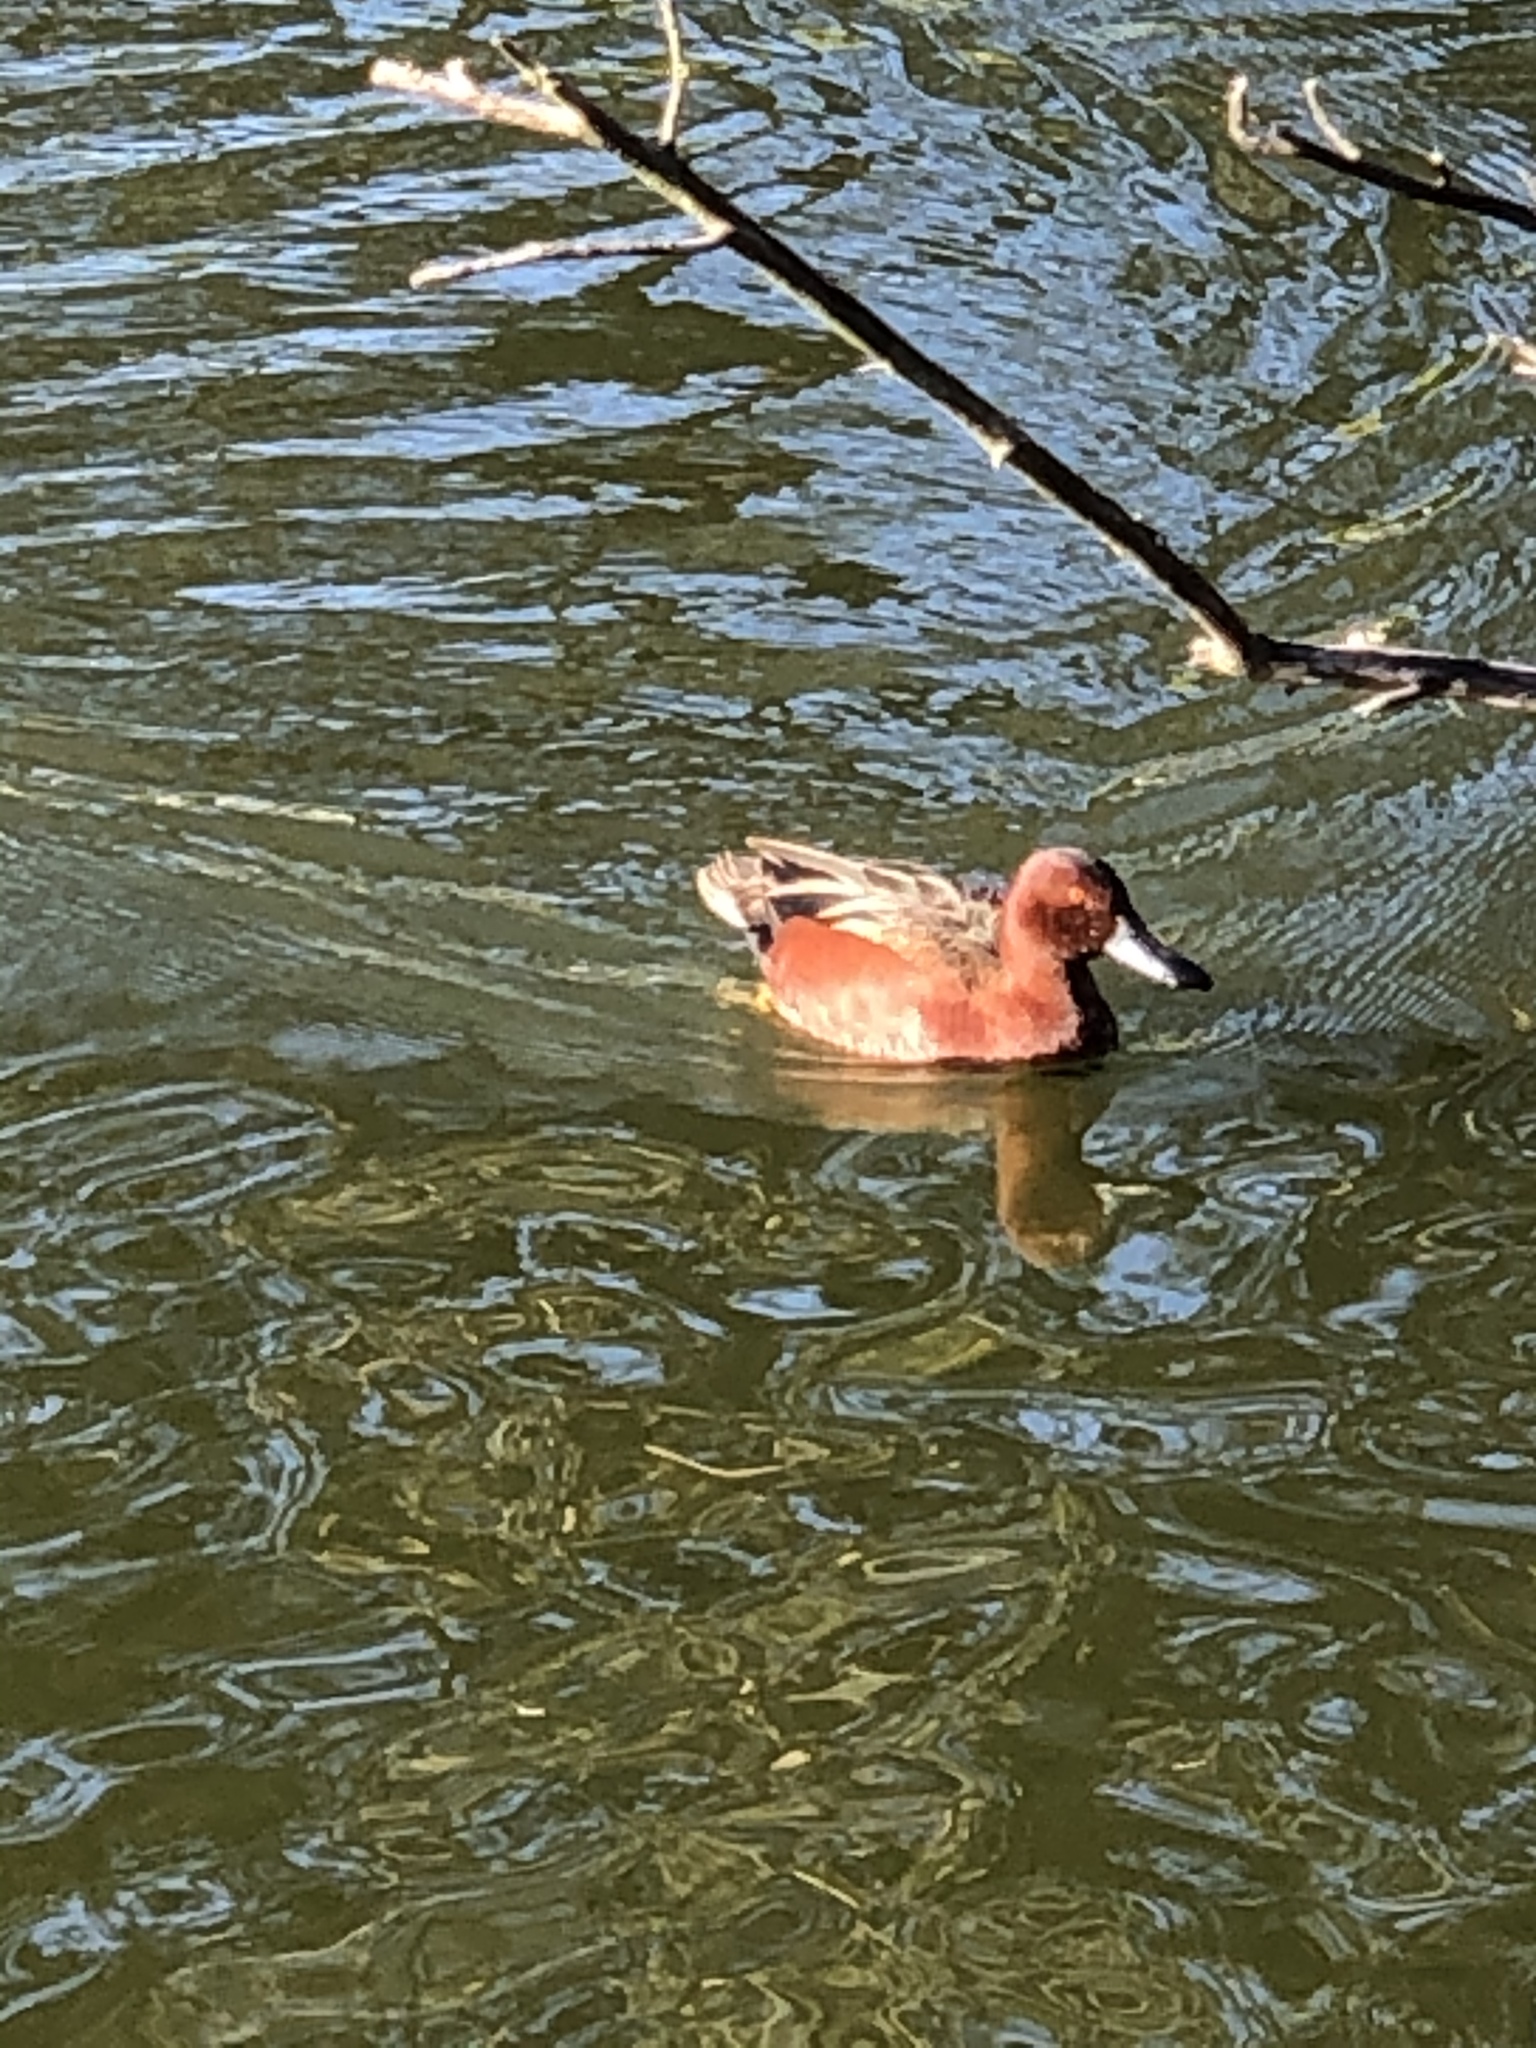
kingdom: Animalia
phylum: Chordata
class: Aves
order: Anseriformes
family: Anatidae
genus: Spatula
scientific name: Spatula cyanoptera
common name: Cinnamon teal
